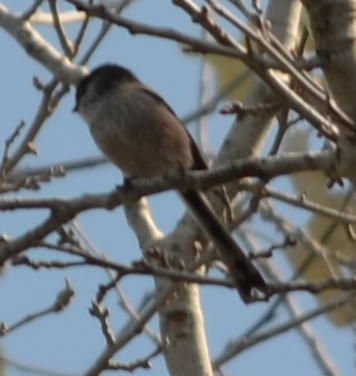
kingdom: Animalia
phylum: Chordata
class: Aves
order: Passeriformes
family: Aegithalidae
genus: Aegithalos
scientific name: Aegithalos caudatus
